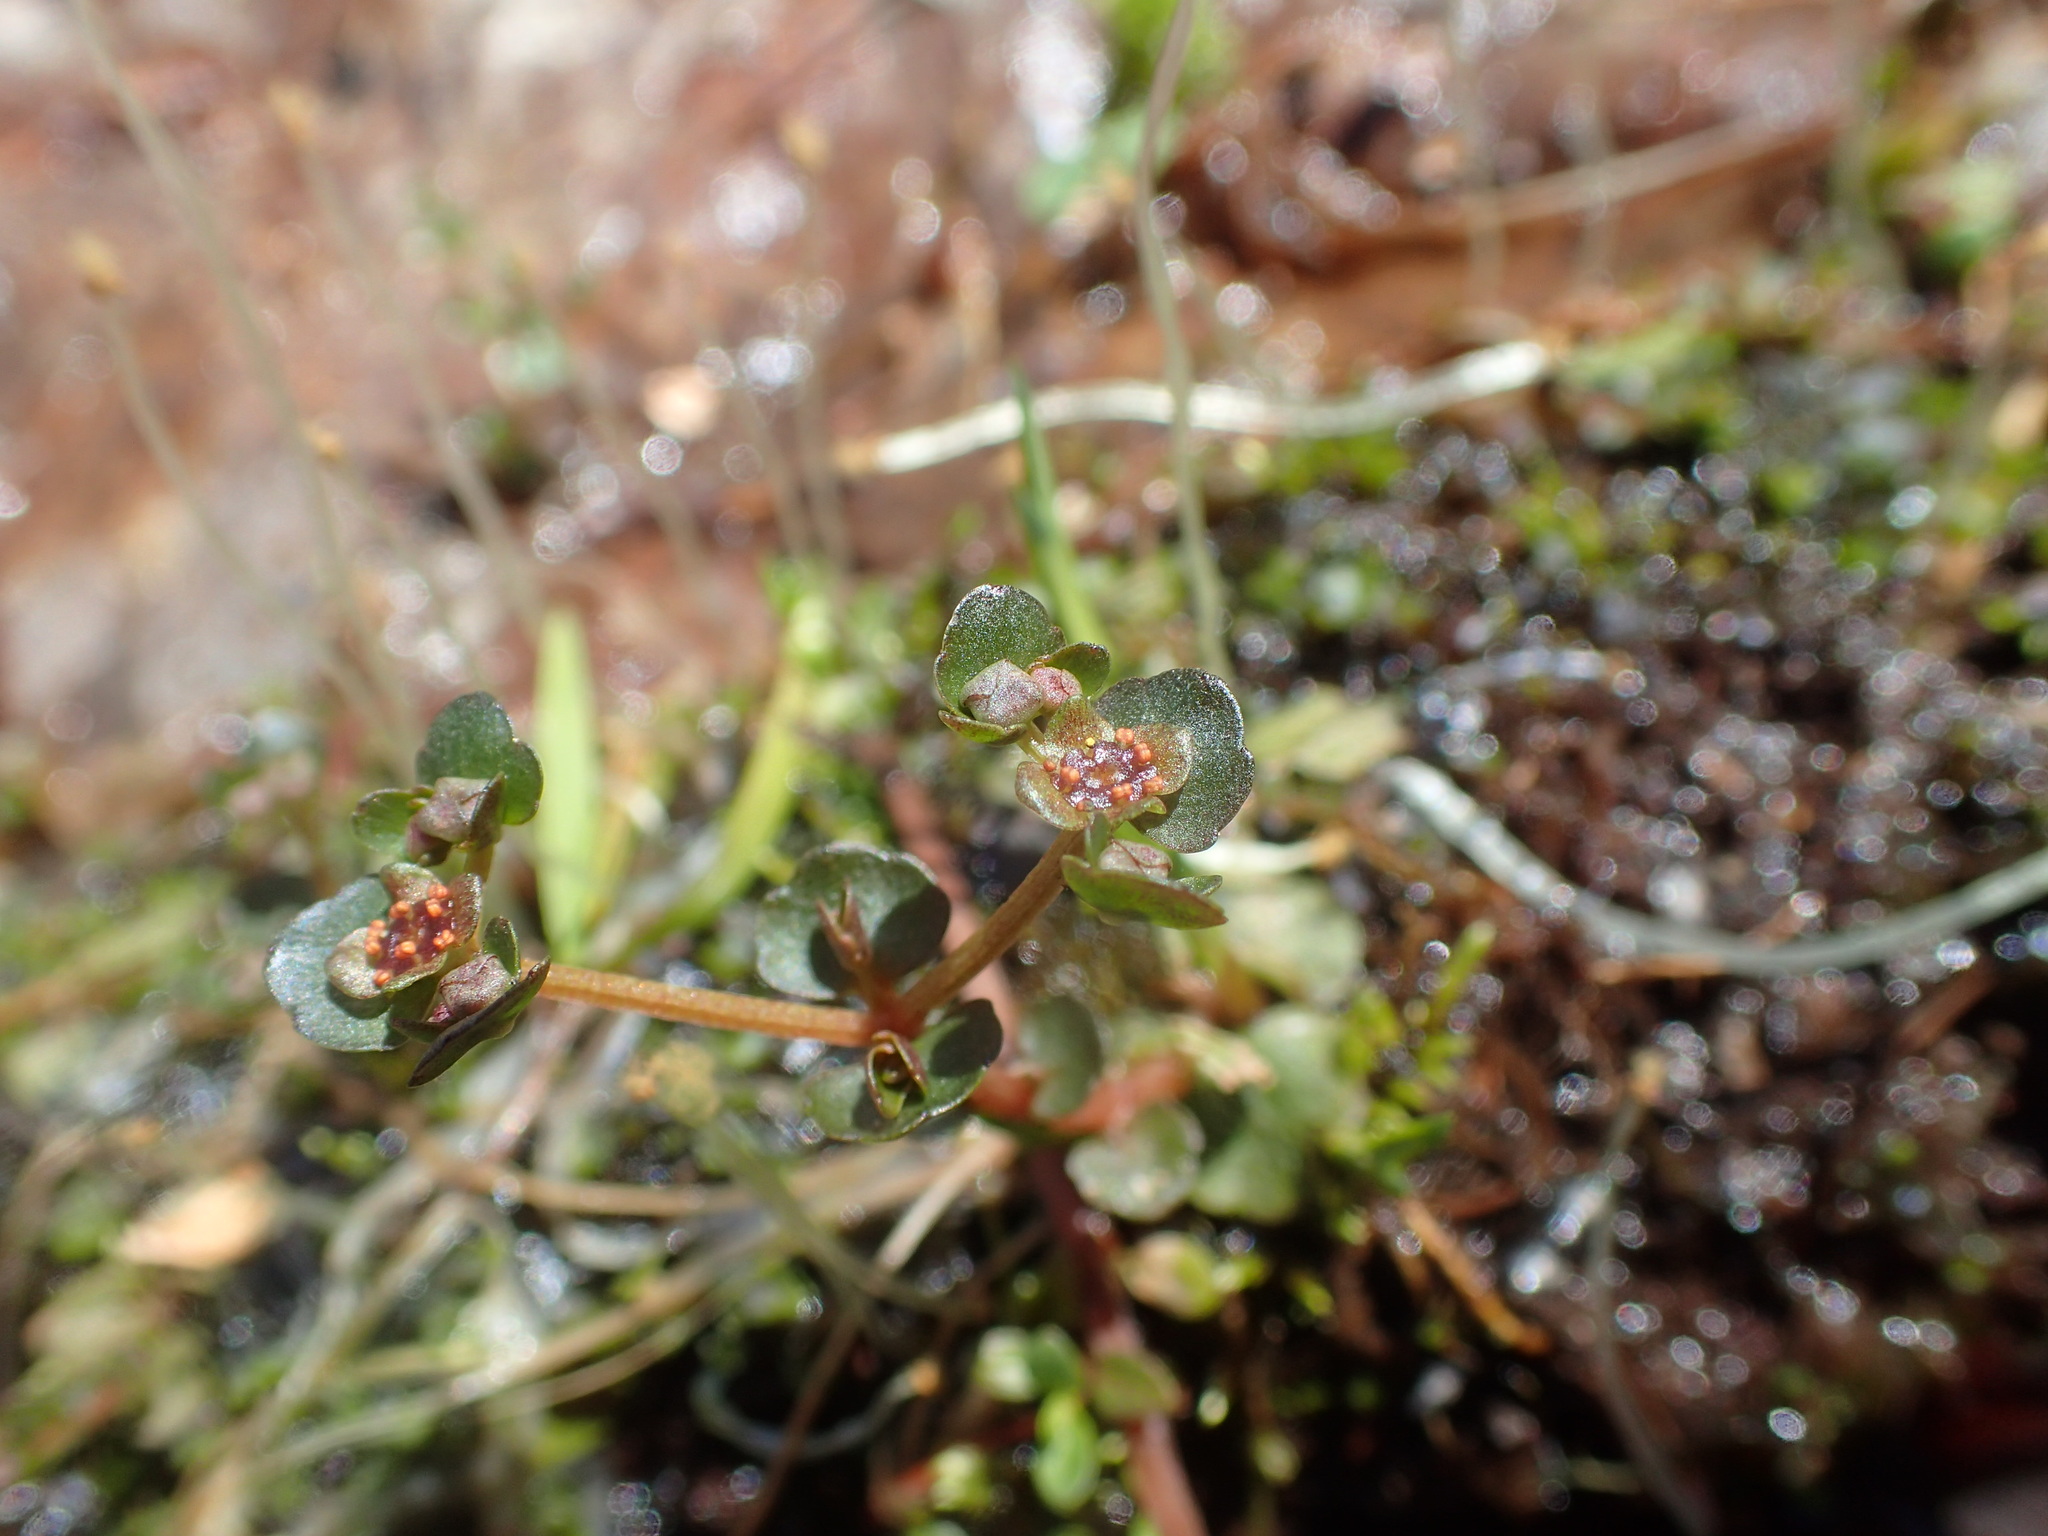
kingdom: Plantae
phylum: Tracheophyta
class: Magnoliopsida
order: Saxifragales
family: Saxifragaceae
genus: Chrysosplenium
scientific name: Chrysosplenium americanum
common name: American golden-saxifrage
